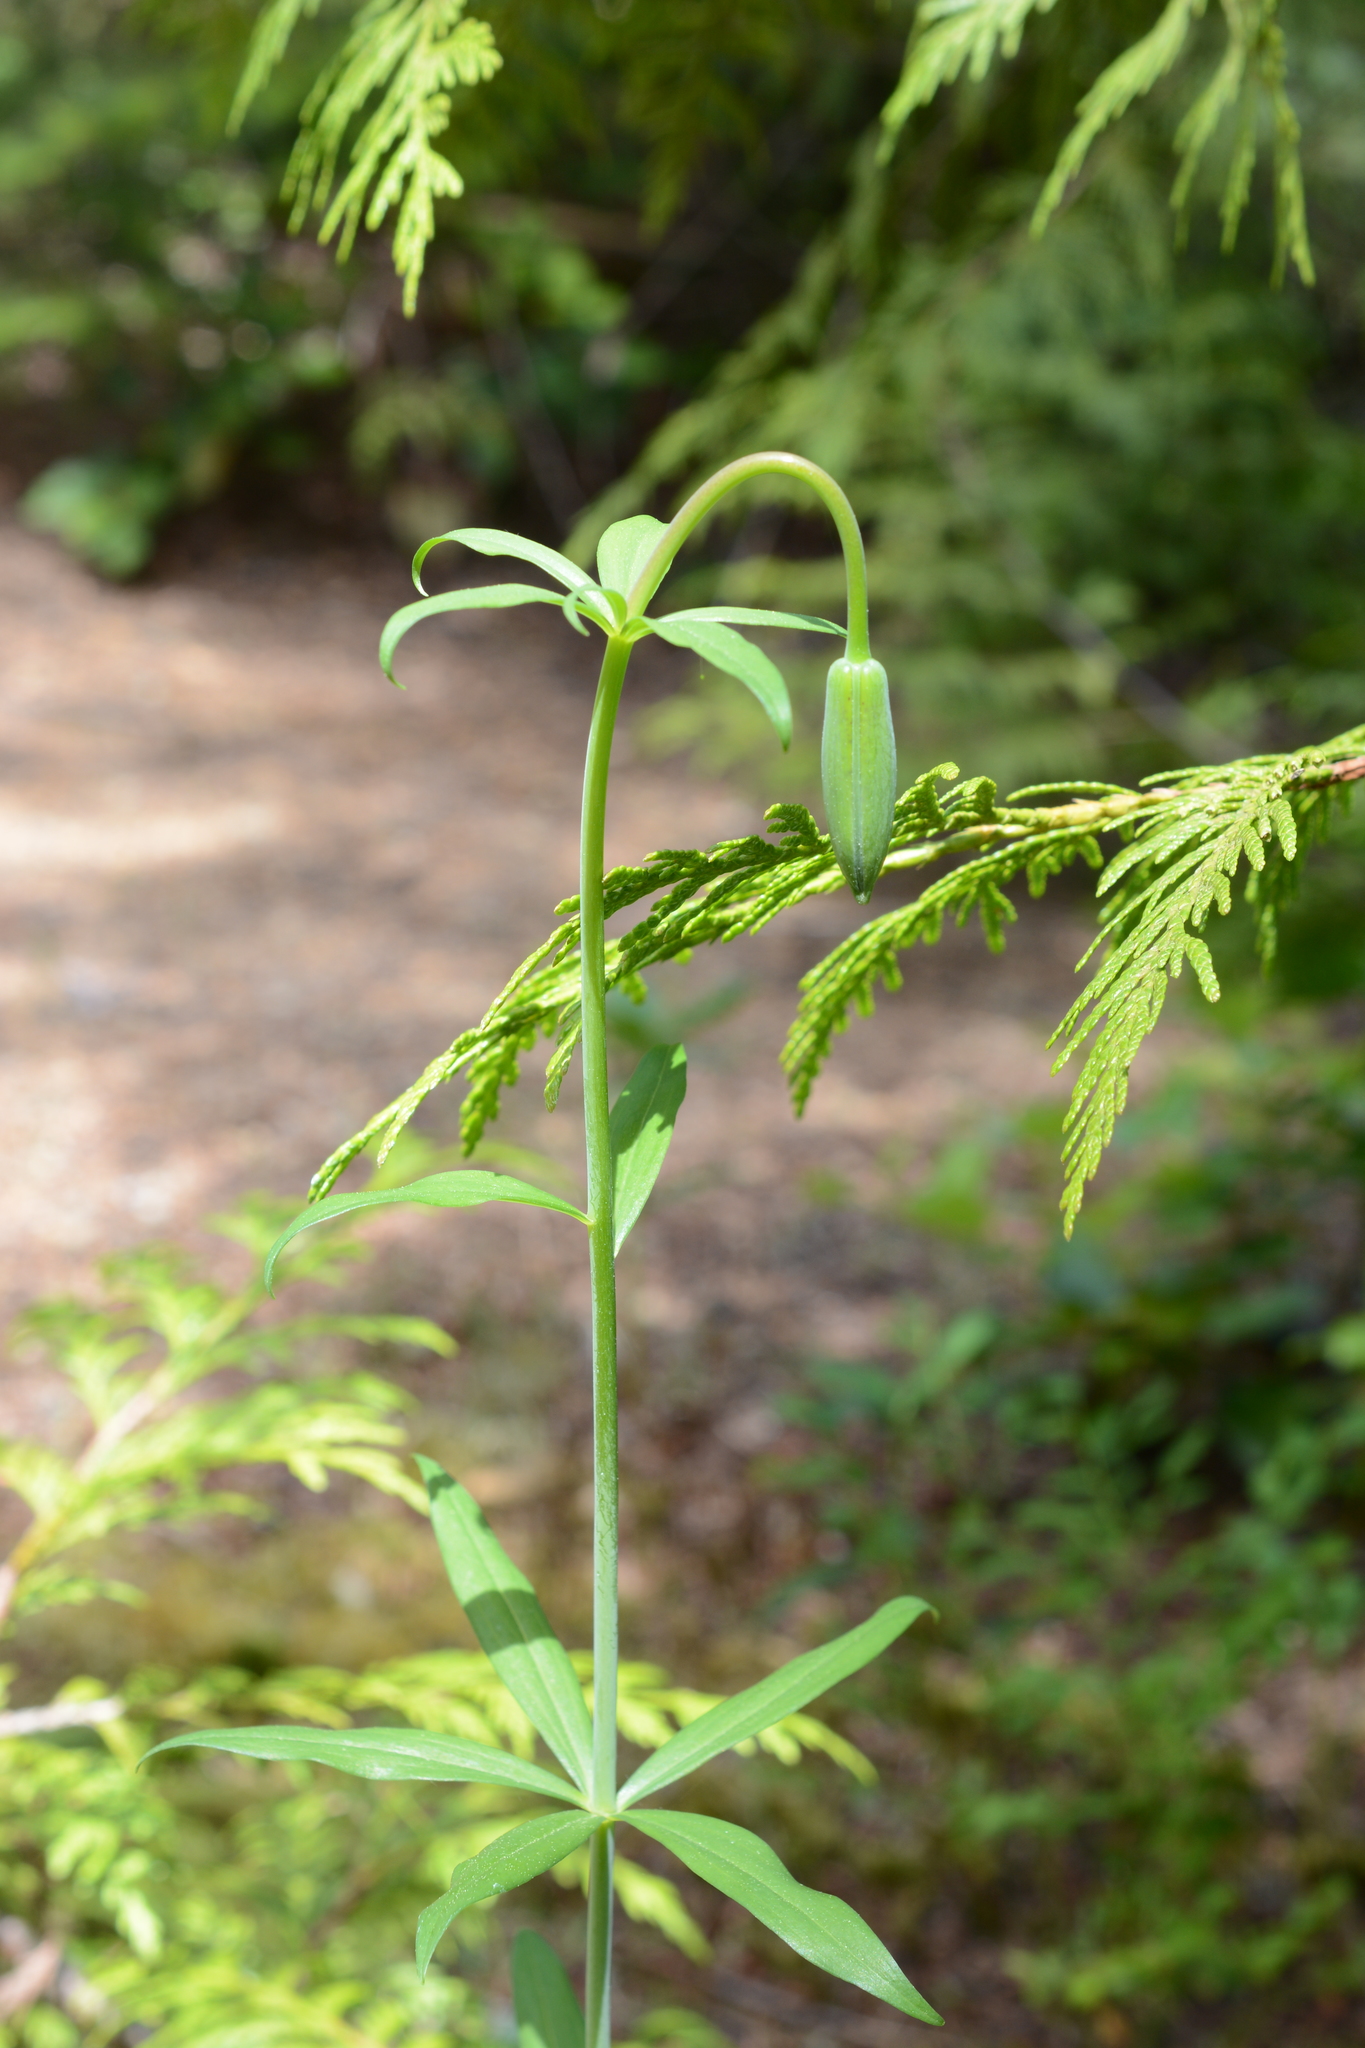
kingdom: Plantae
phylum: Tracheophyta
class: Liliopsida
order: Liliales
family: Liliaceae
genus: Lilium
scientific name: Lilium columbianum
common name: Columbia lily
